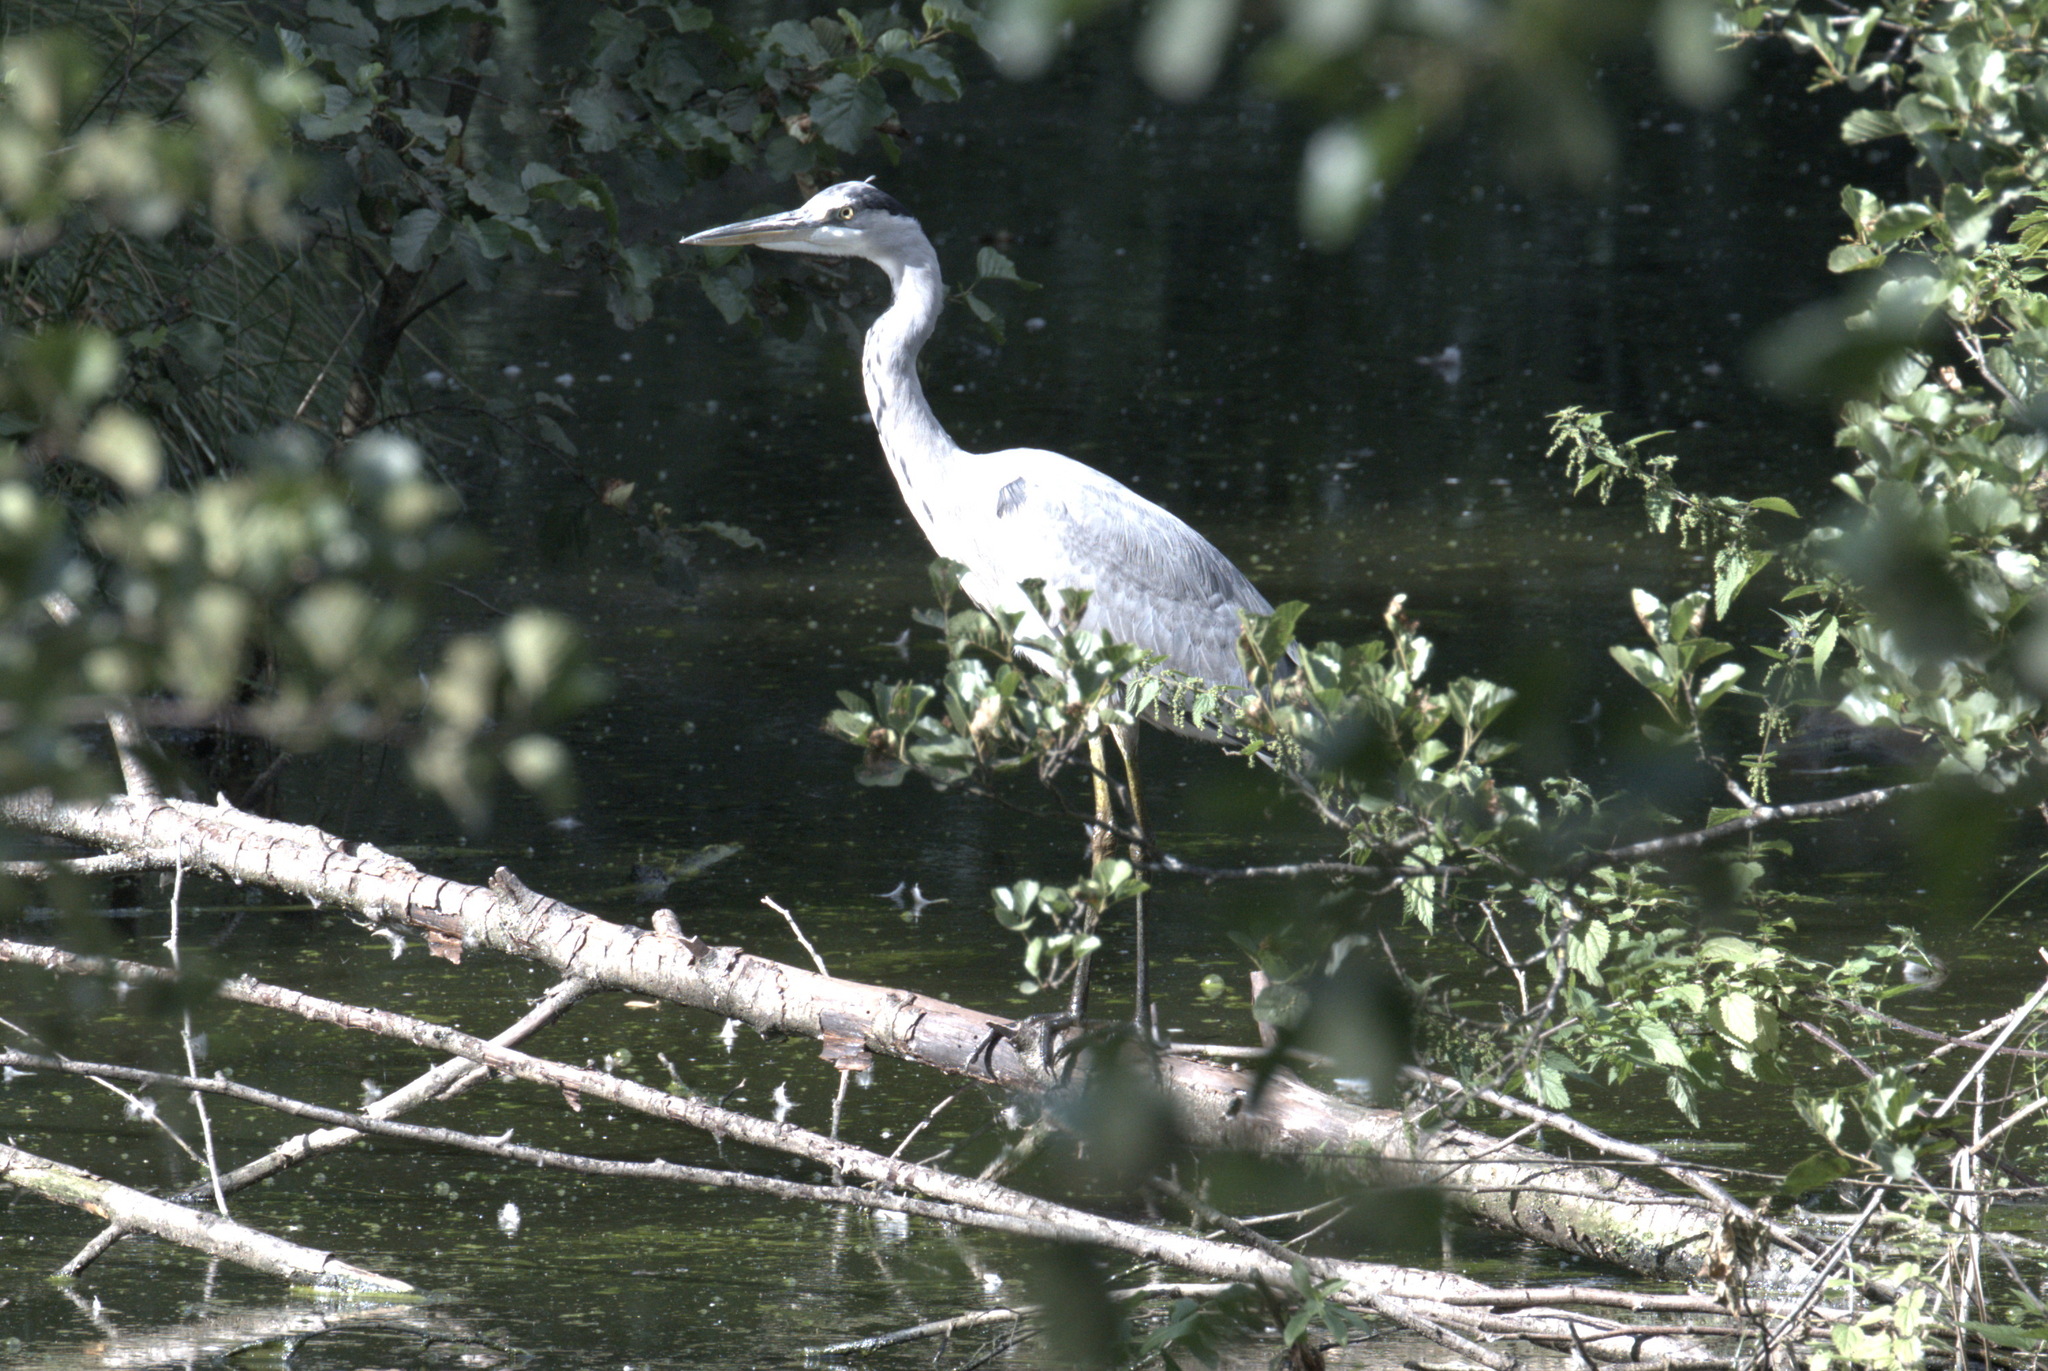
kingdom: Animalia
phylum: Chordata
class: Aves
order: Pelecaniformes
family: Ardeidae
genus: Ardea
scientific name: Ardea cinerea
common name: Grey heron
